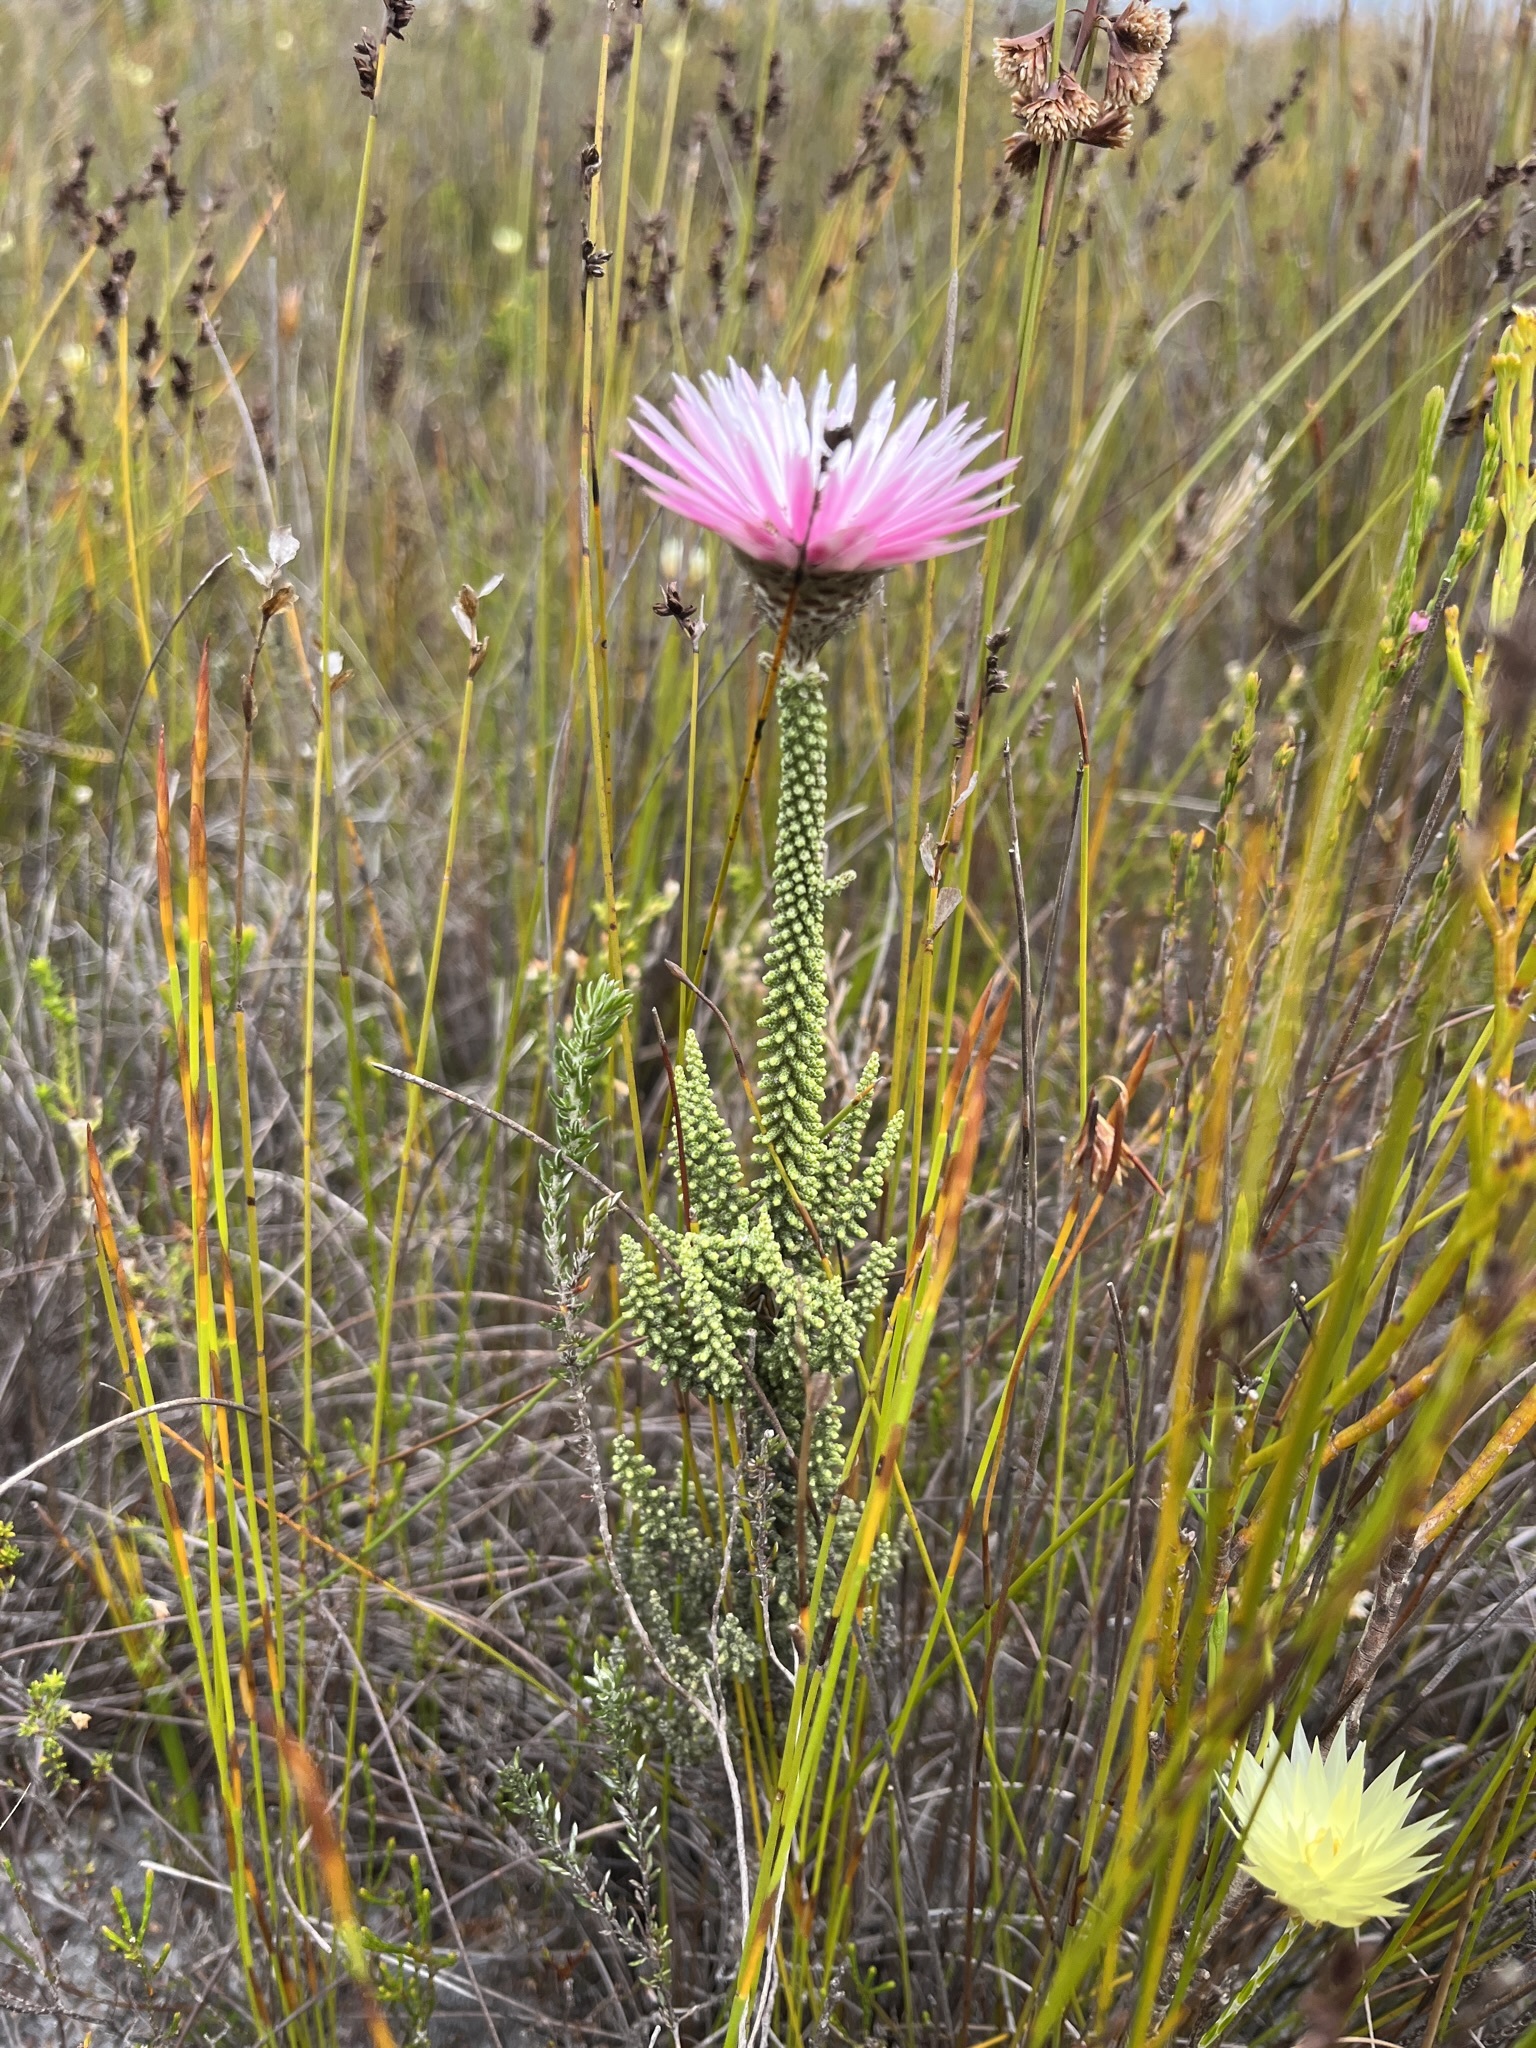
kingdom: Plantae
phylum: Tracheophyta
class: Magnoliopsida
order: Asterales
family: Asteraceae
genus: Phaenocoma
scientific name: Phaenocoma prolifera
